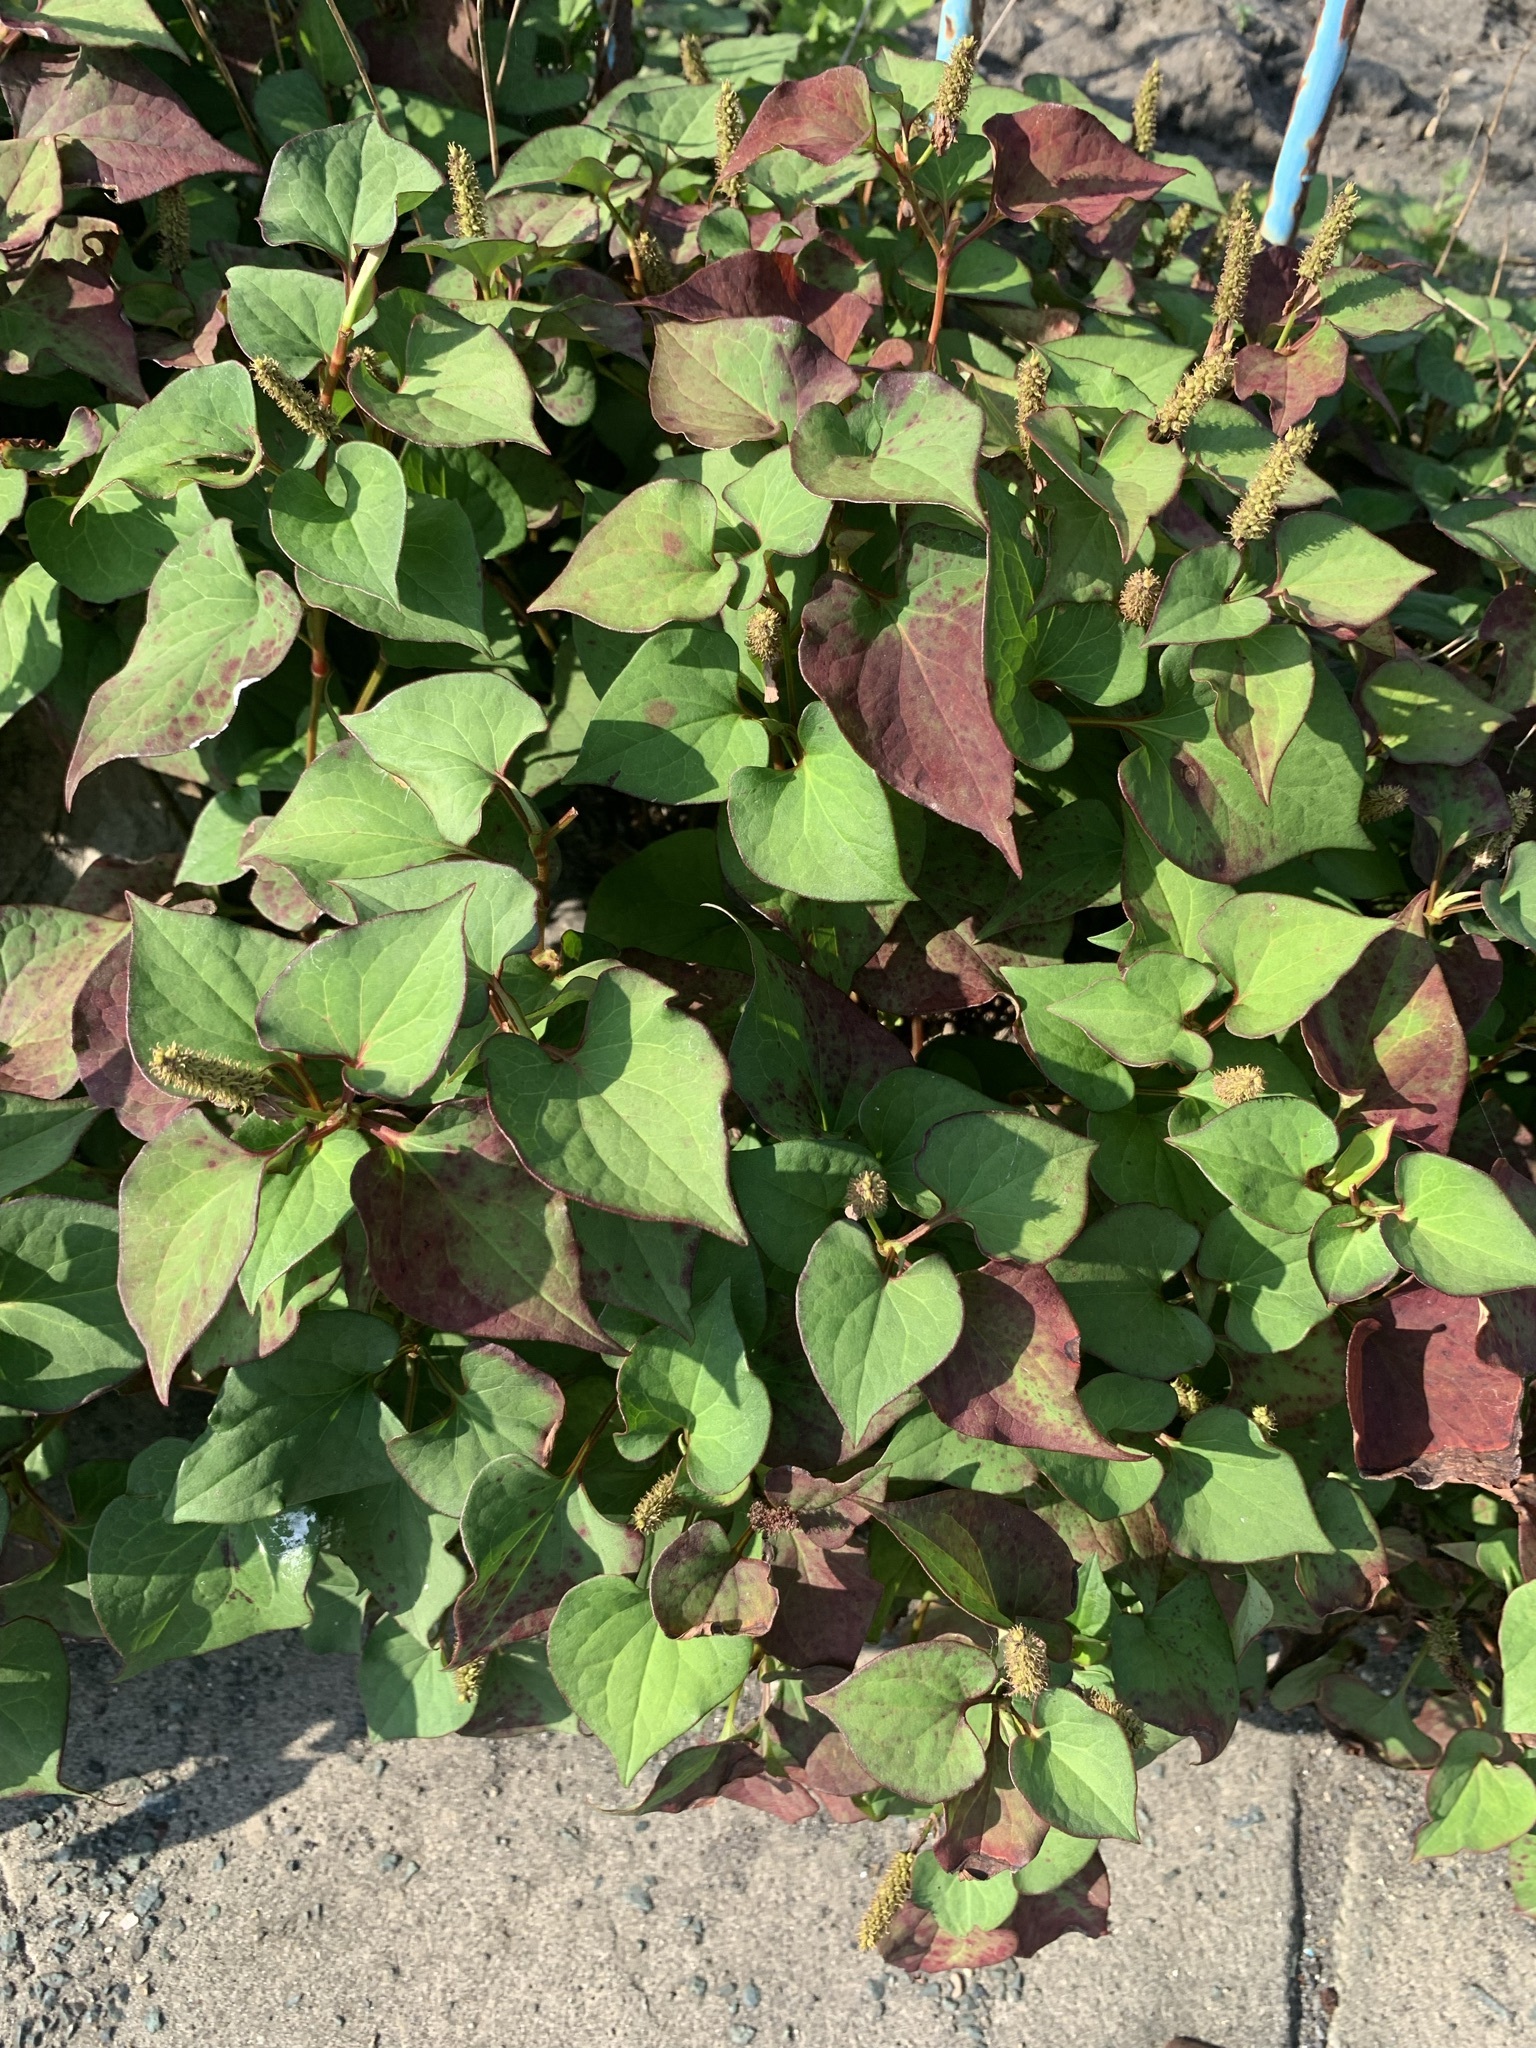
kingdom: Plantae
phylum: Tracheophyta
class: Magnoliopsida
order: Piperales
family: Saururaceae
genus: Houttuynia
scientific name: Houttuynia cordata
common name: Chameleon
